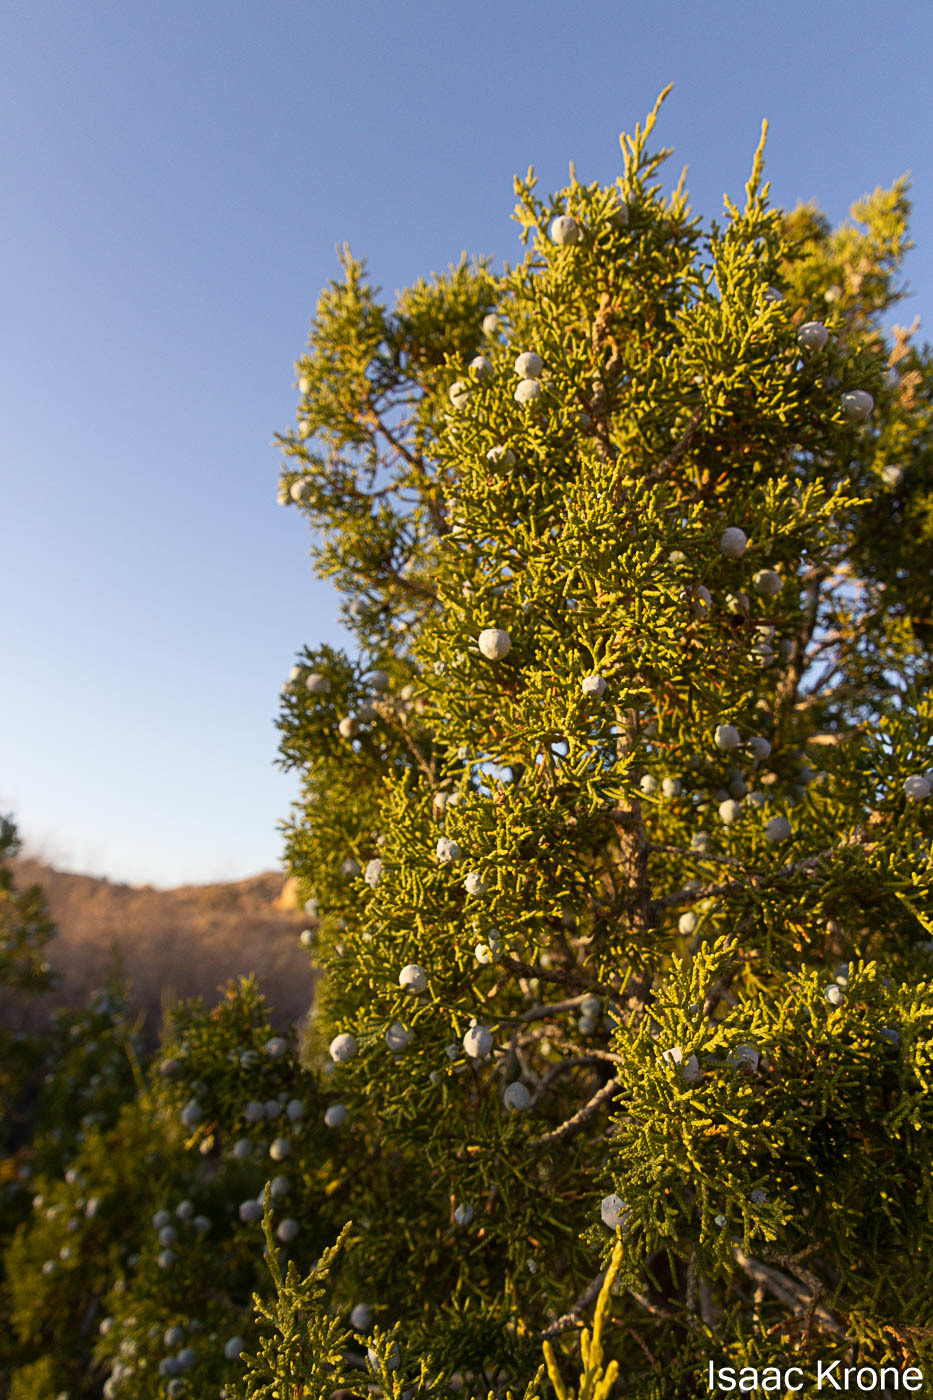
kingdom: Plantae
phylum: Tracheophyta
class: Pinopsida
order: Pinales
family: Cupressaceae
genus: Juniperus
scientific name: Juniperus californica
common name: California juniper
